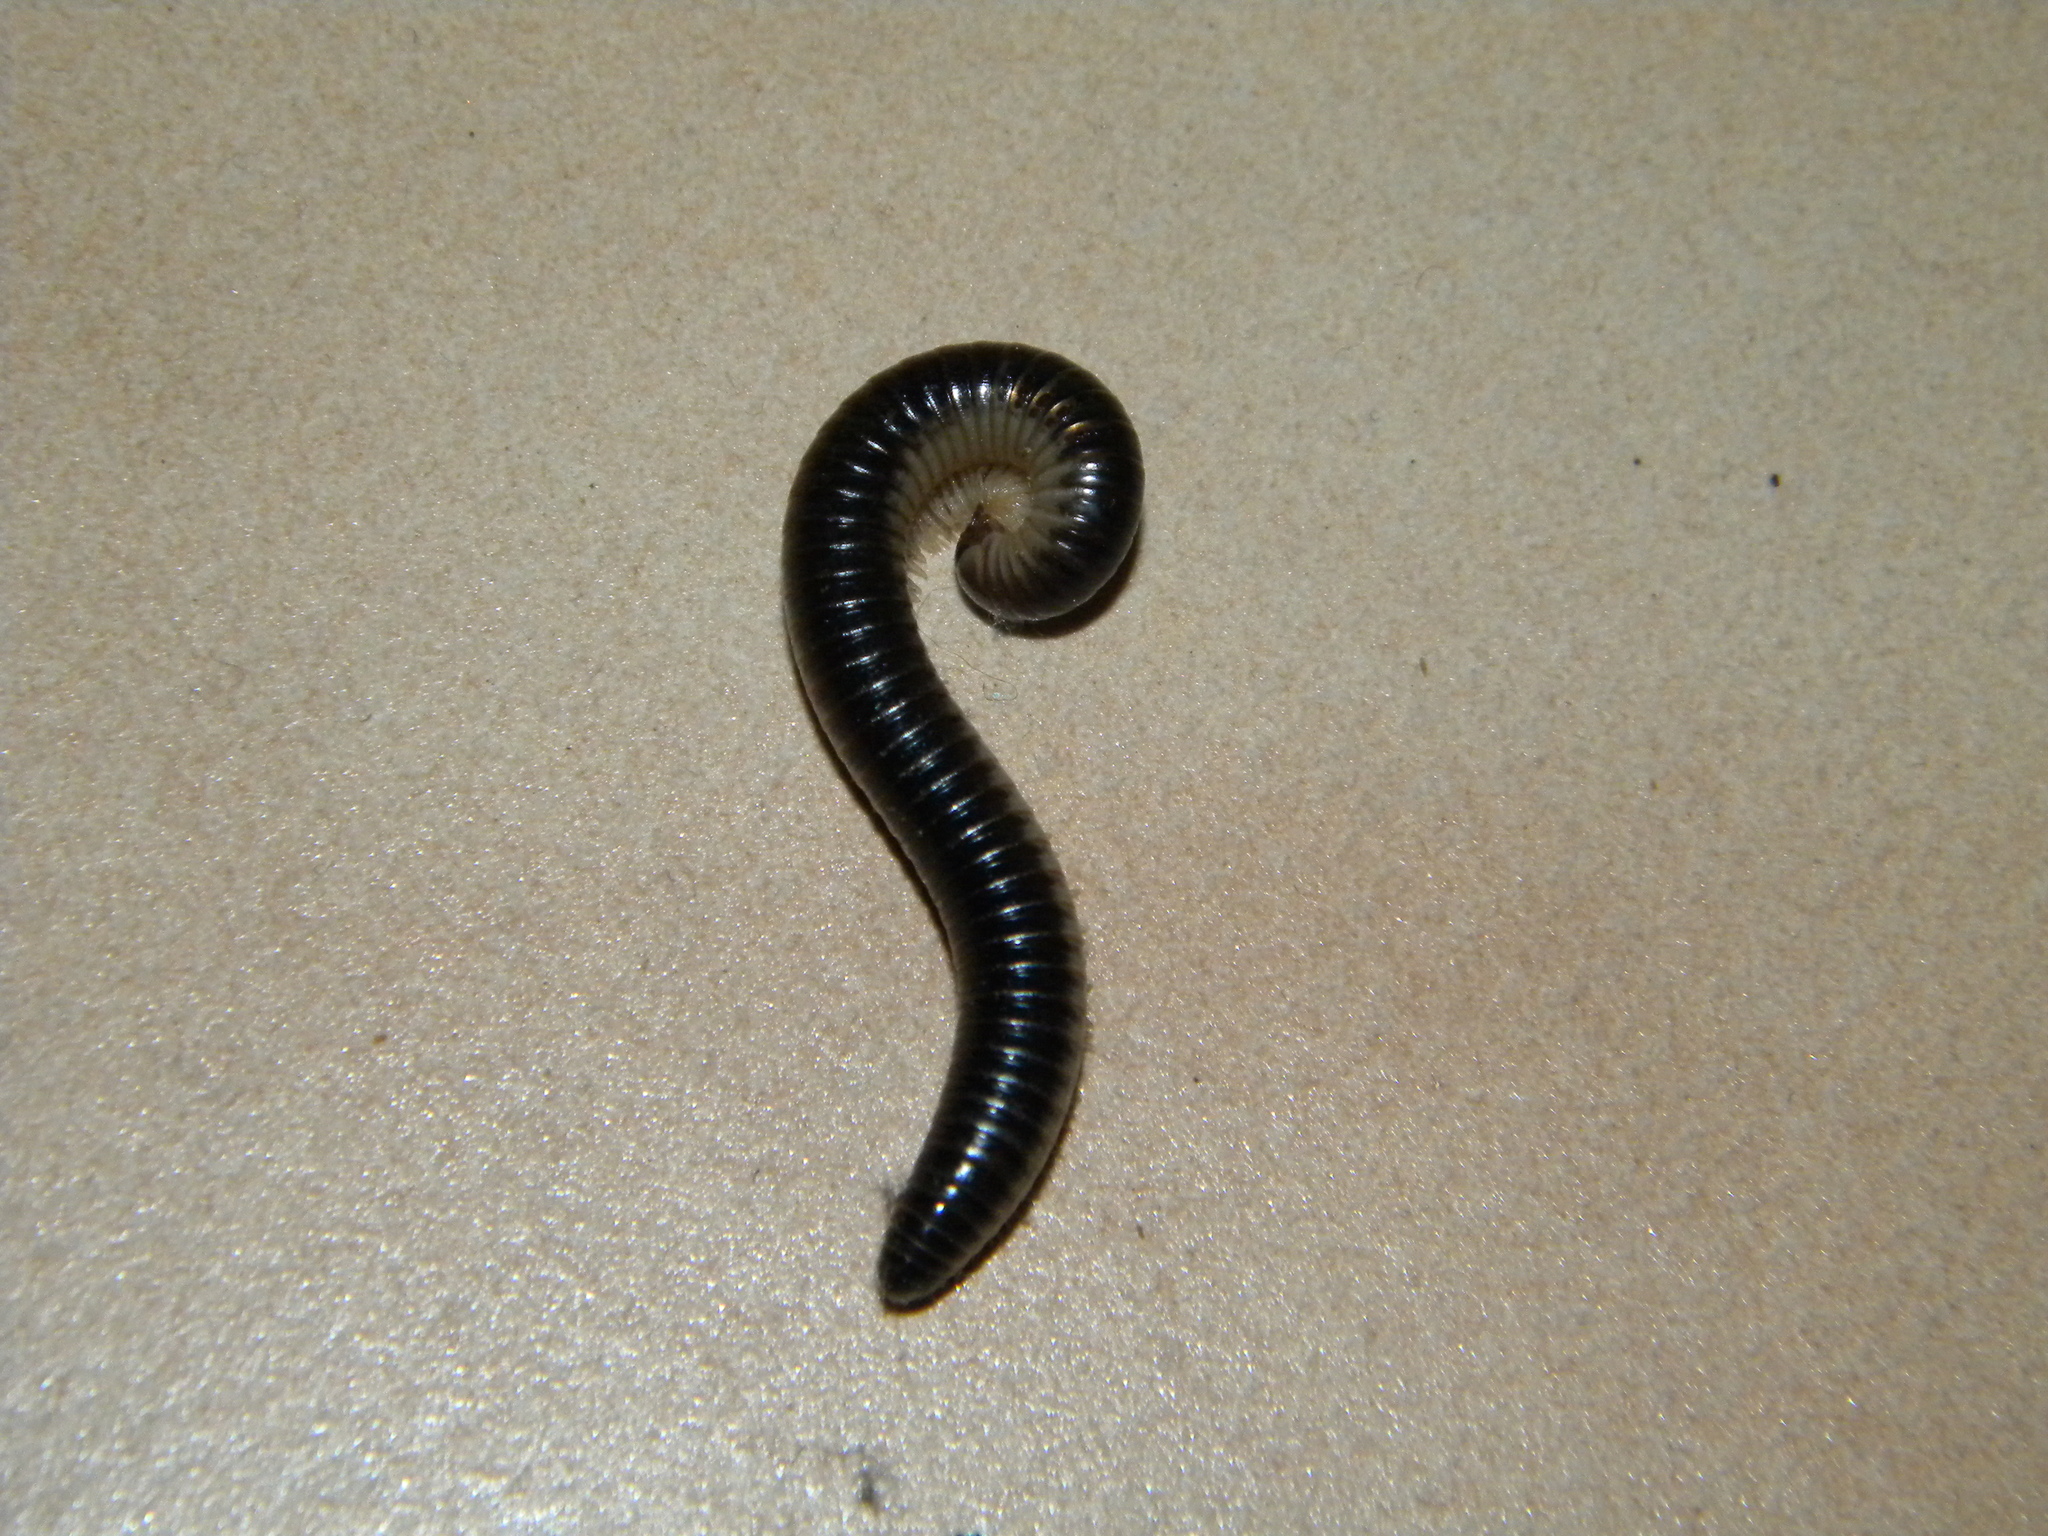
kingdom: Animalia
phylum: Arthropoda
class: Diplopoda
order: Julida
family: Julidae
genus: Pachyiulus
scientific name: Pachyiulus flavipes
